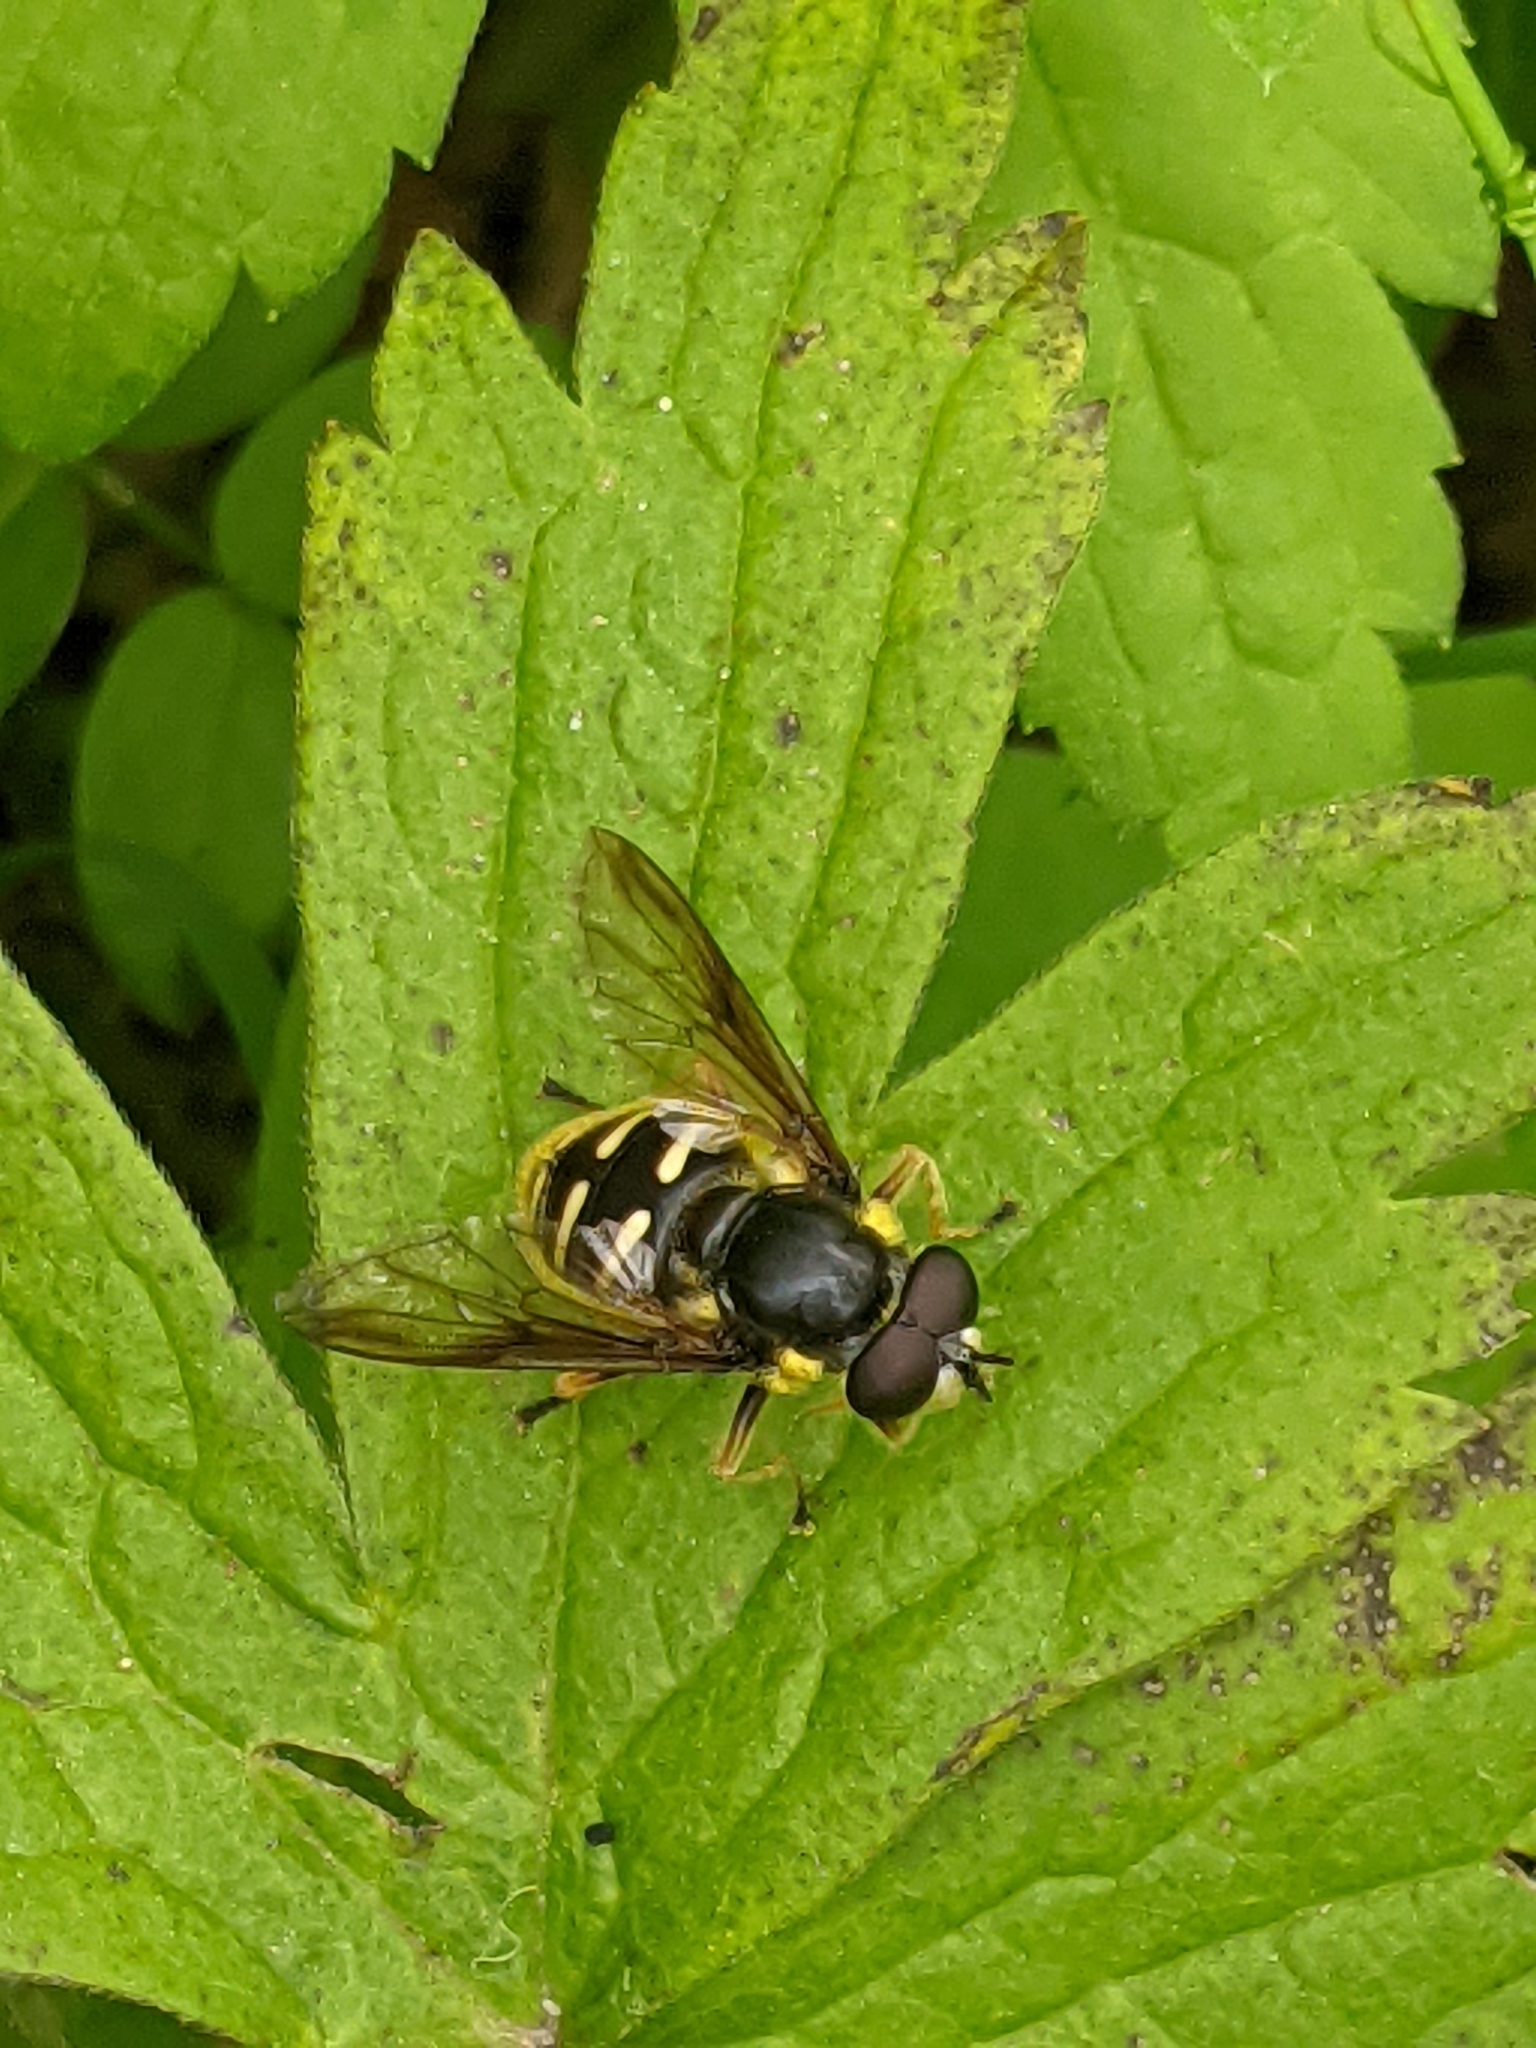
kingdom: Animalia
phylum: Arthropoda
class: Insecta
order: Diptera
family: Syrphidae
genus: Sericomyia
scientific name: Sericomyia chrysotoxoides
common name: Oblique-banded pond fly
